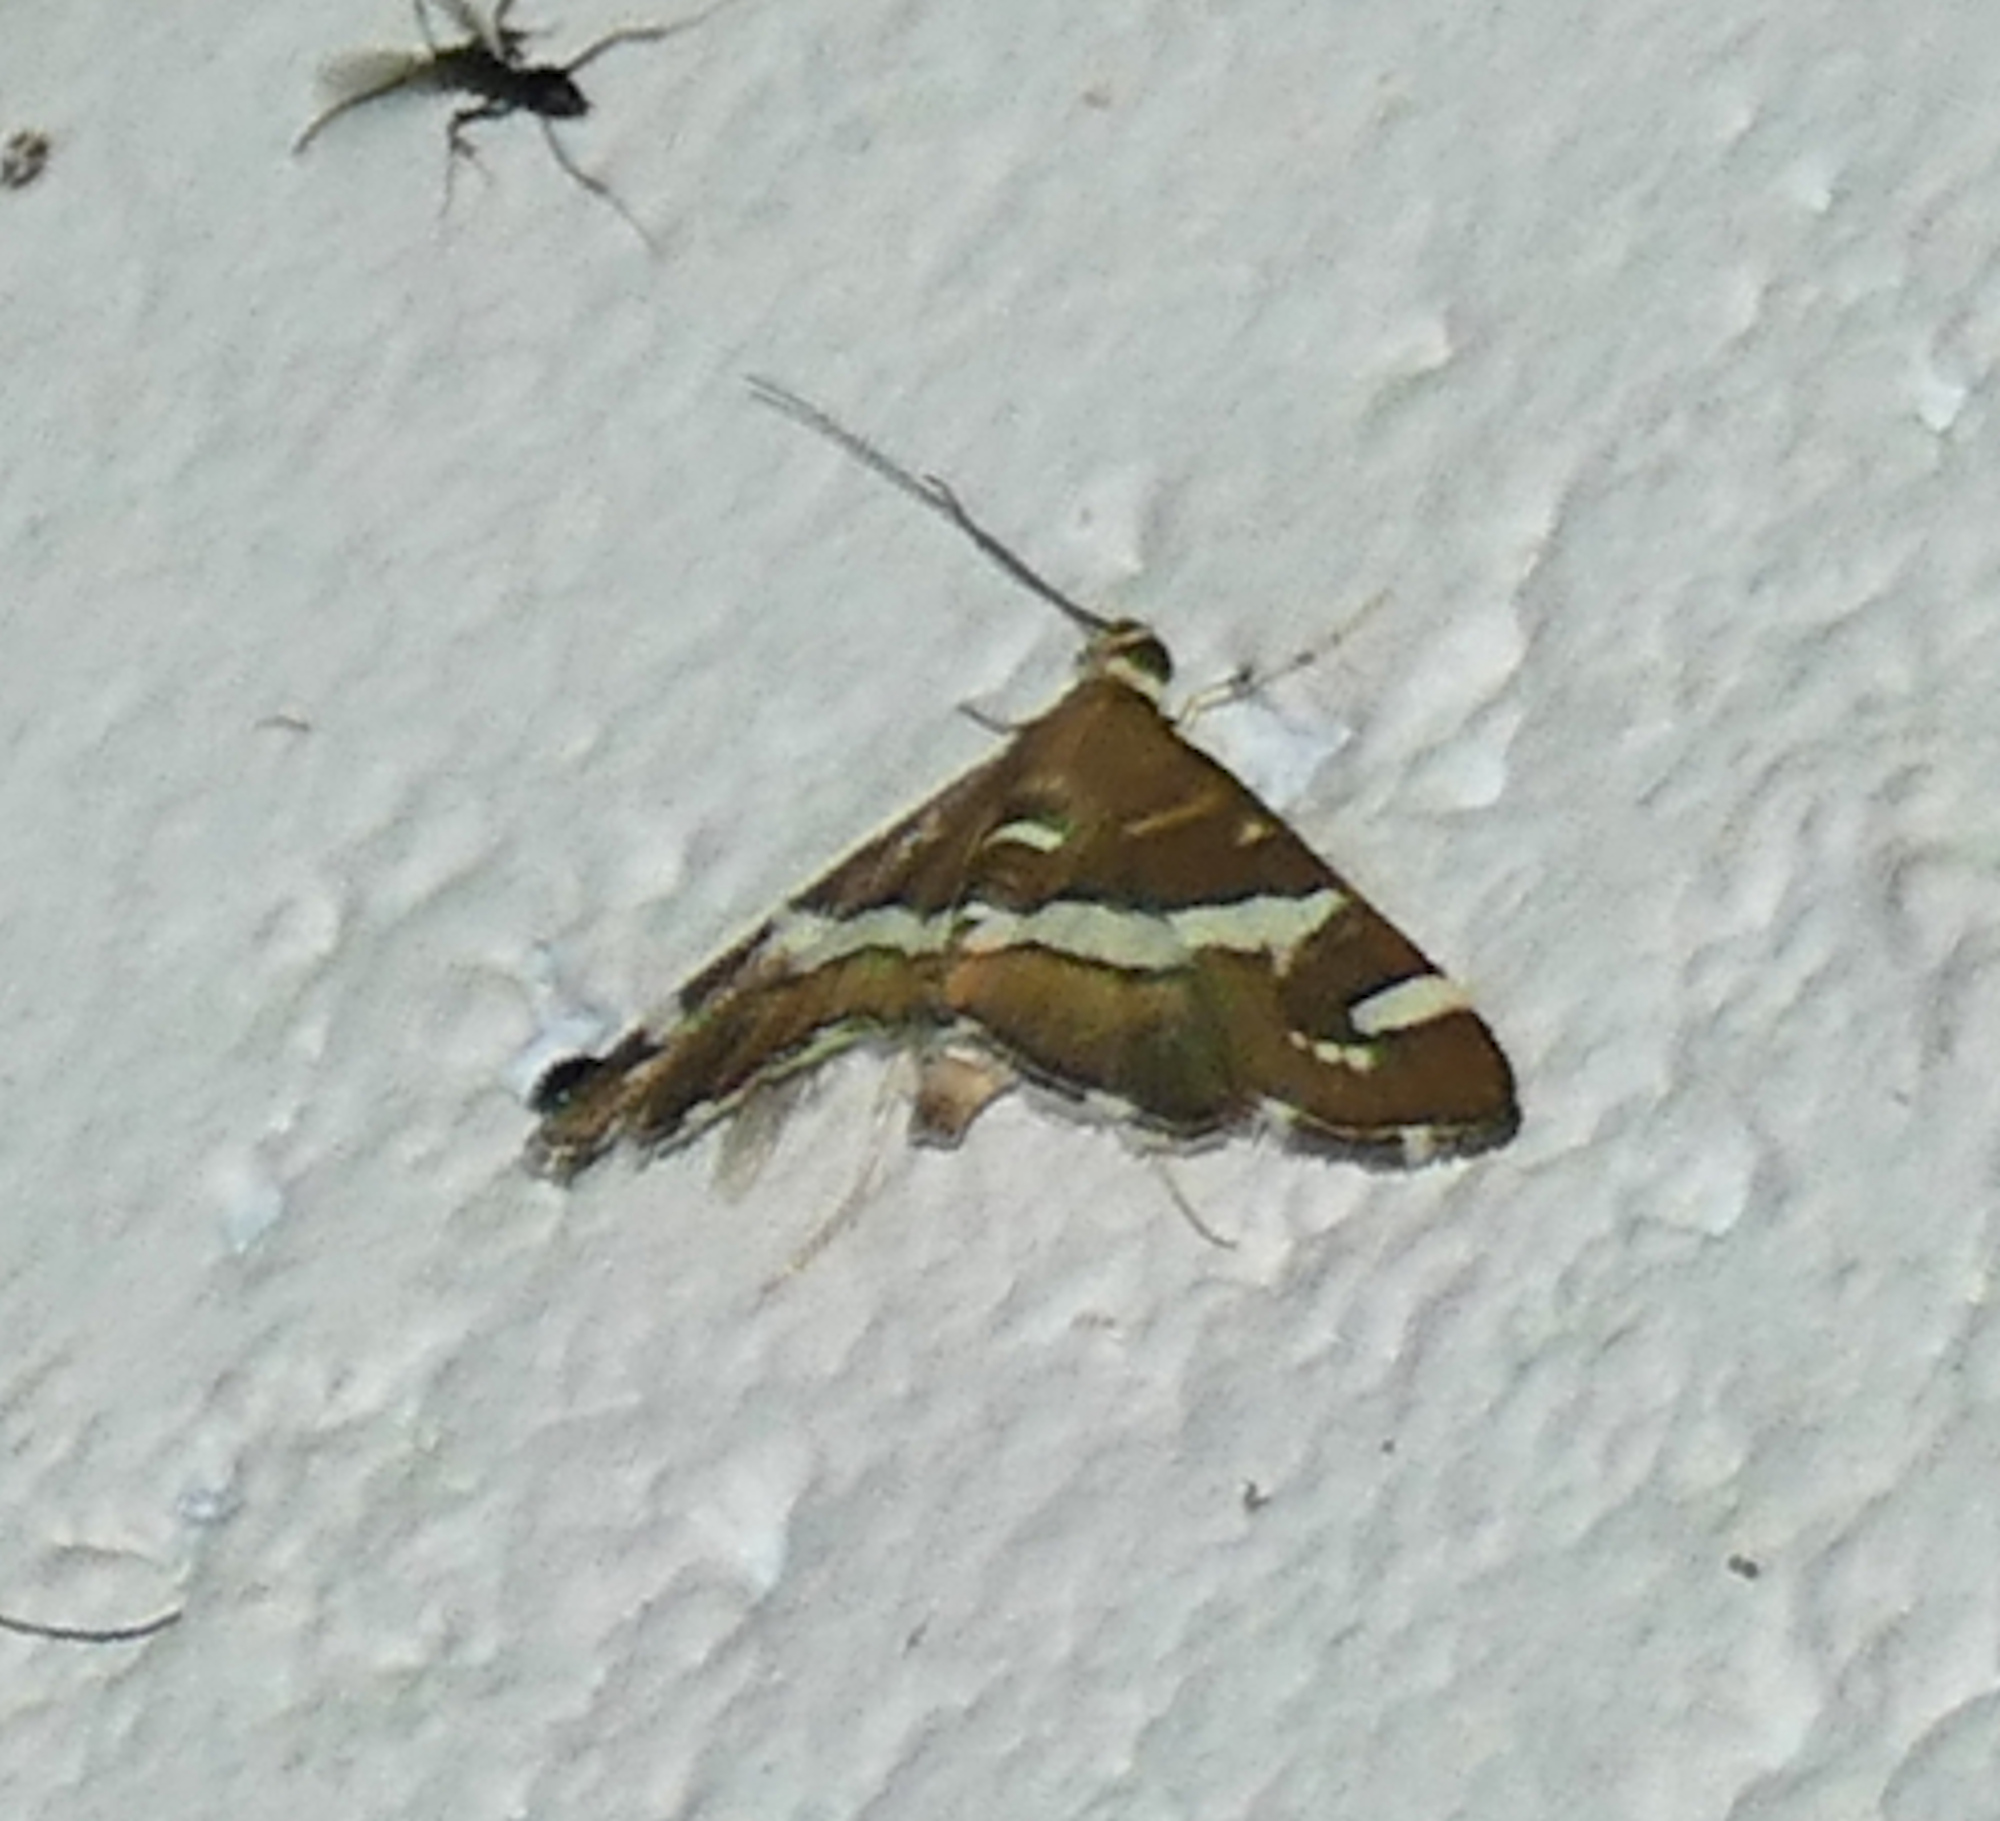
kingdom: Animalia
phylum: Arthropoda
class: Insecta
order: Lepidoptera
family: Crambidae
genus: Spoladea
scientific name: Spoladea recurvalis
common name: Beet webworm moth
